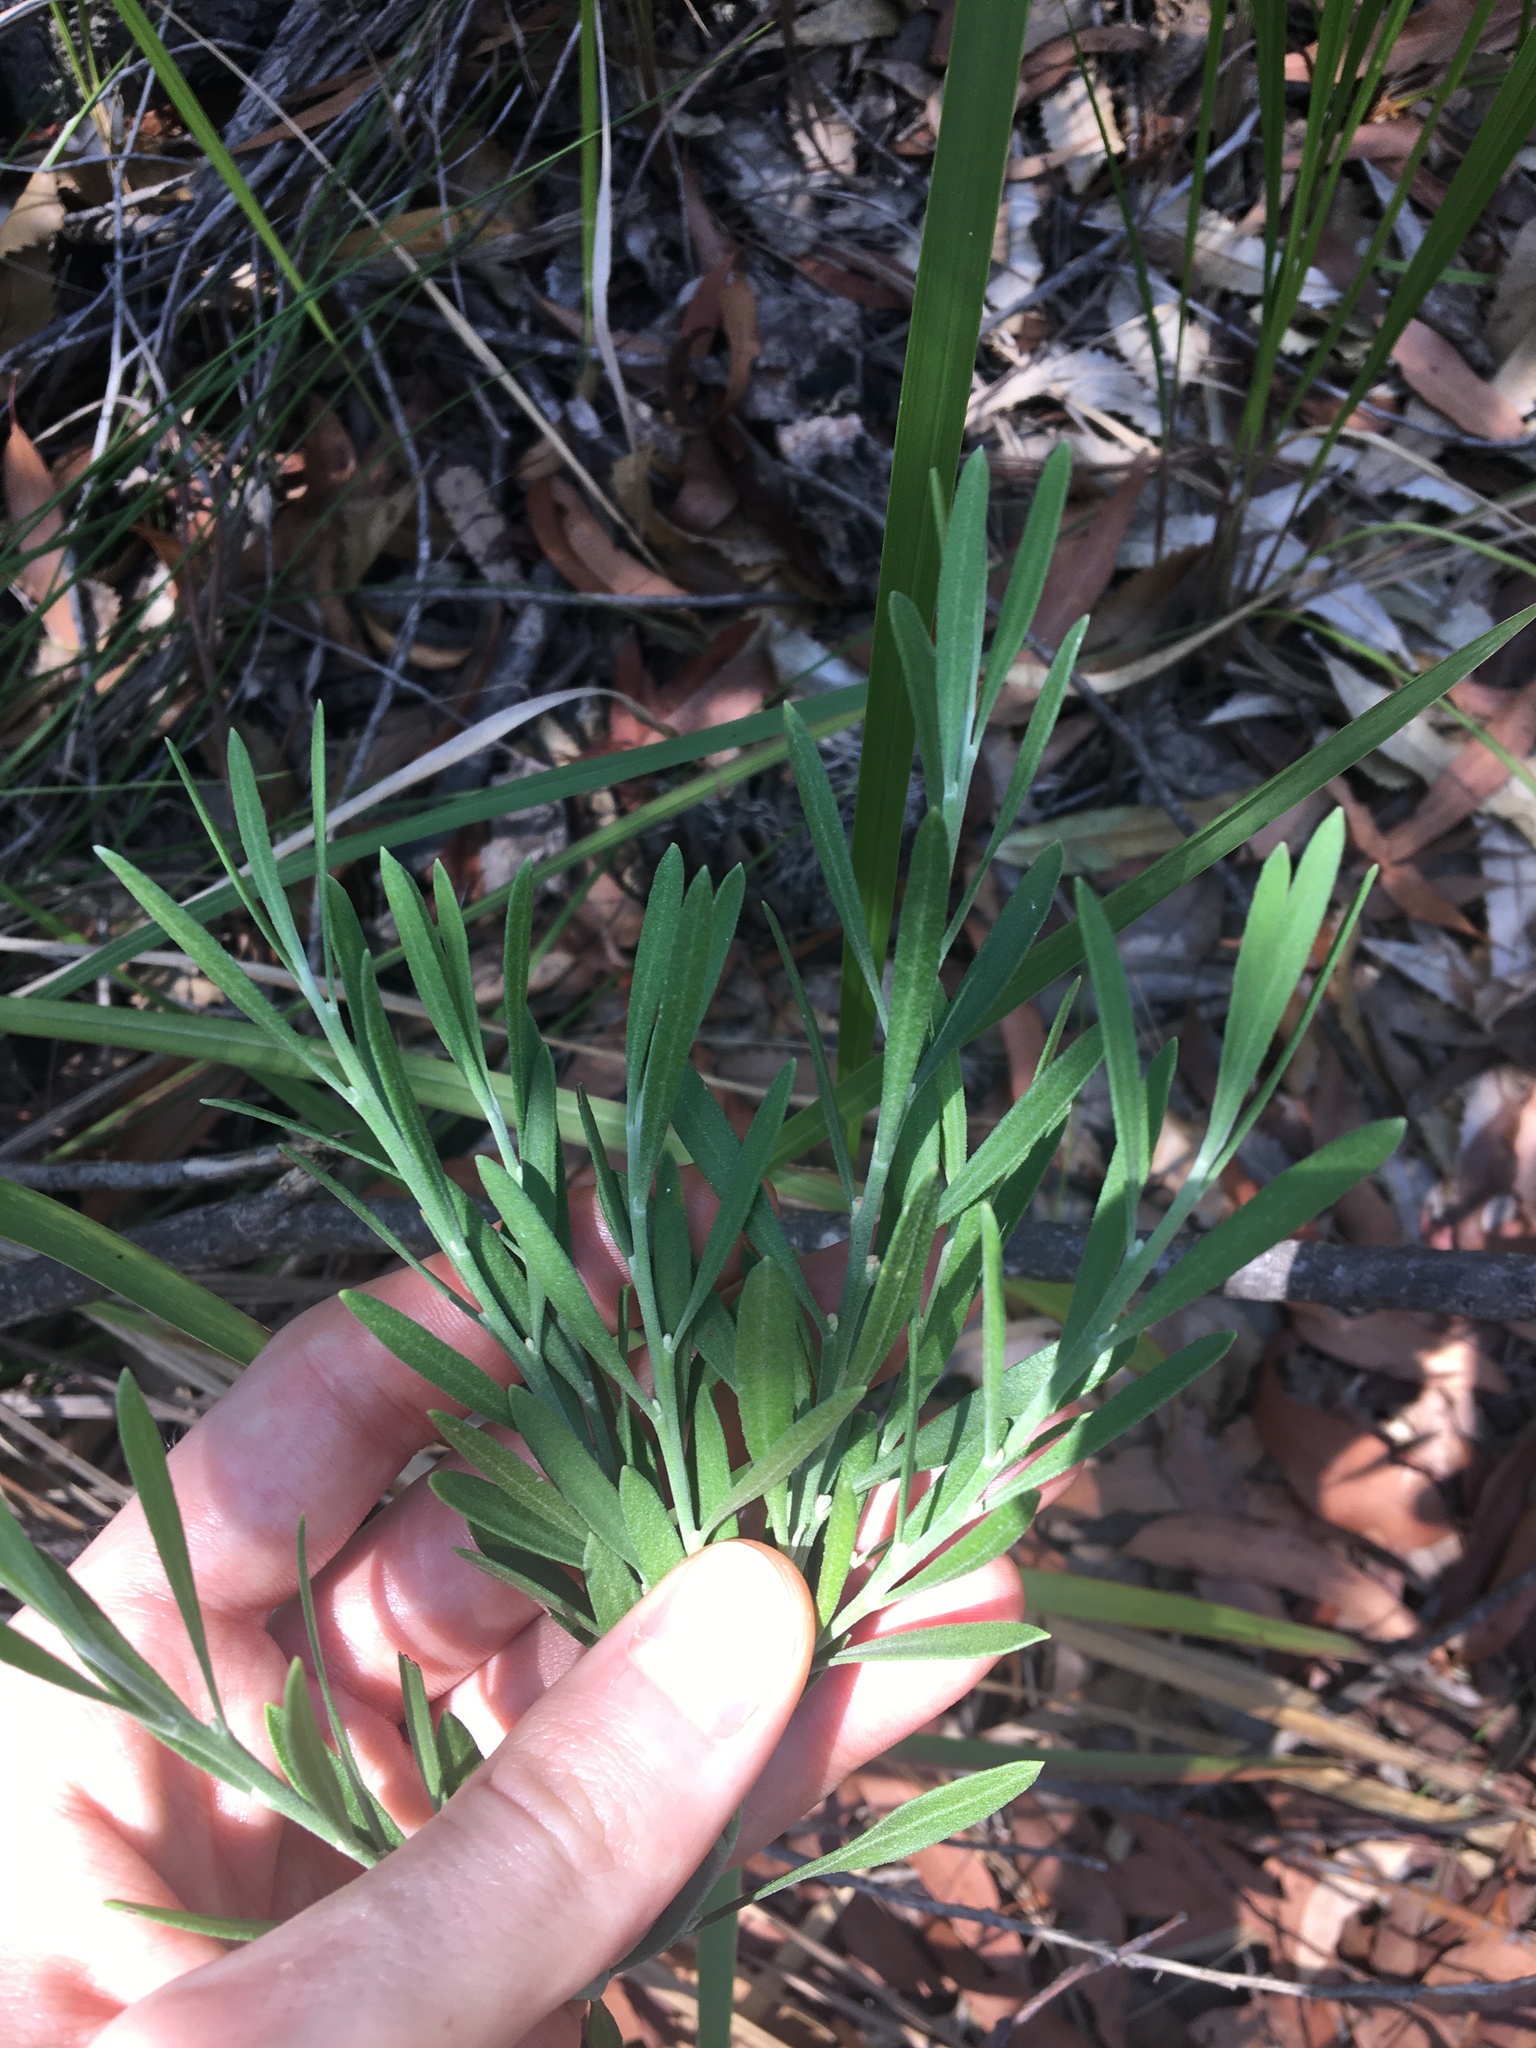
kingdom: Plantae
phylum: Tracheophyta
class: Magnoliopsida
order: Sapindales
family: Rutaceae
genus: Eriostemon
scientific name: Eriostemon australasius
